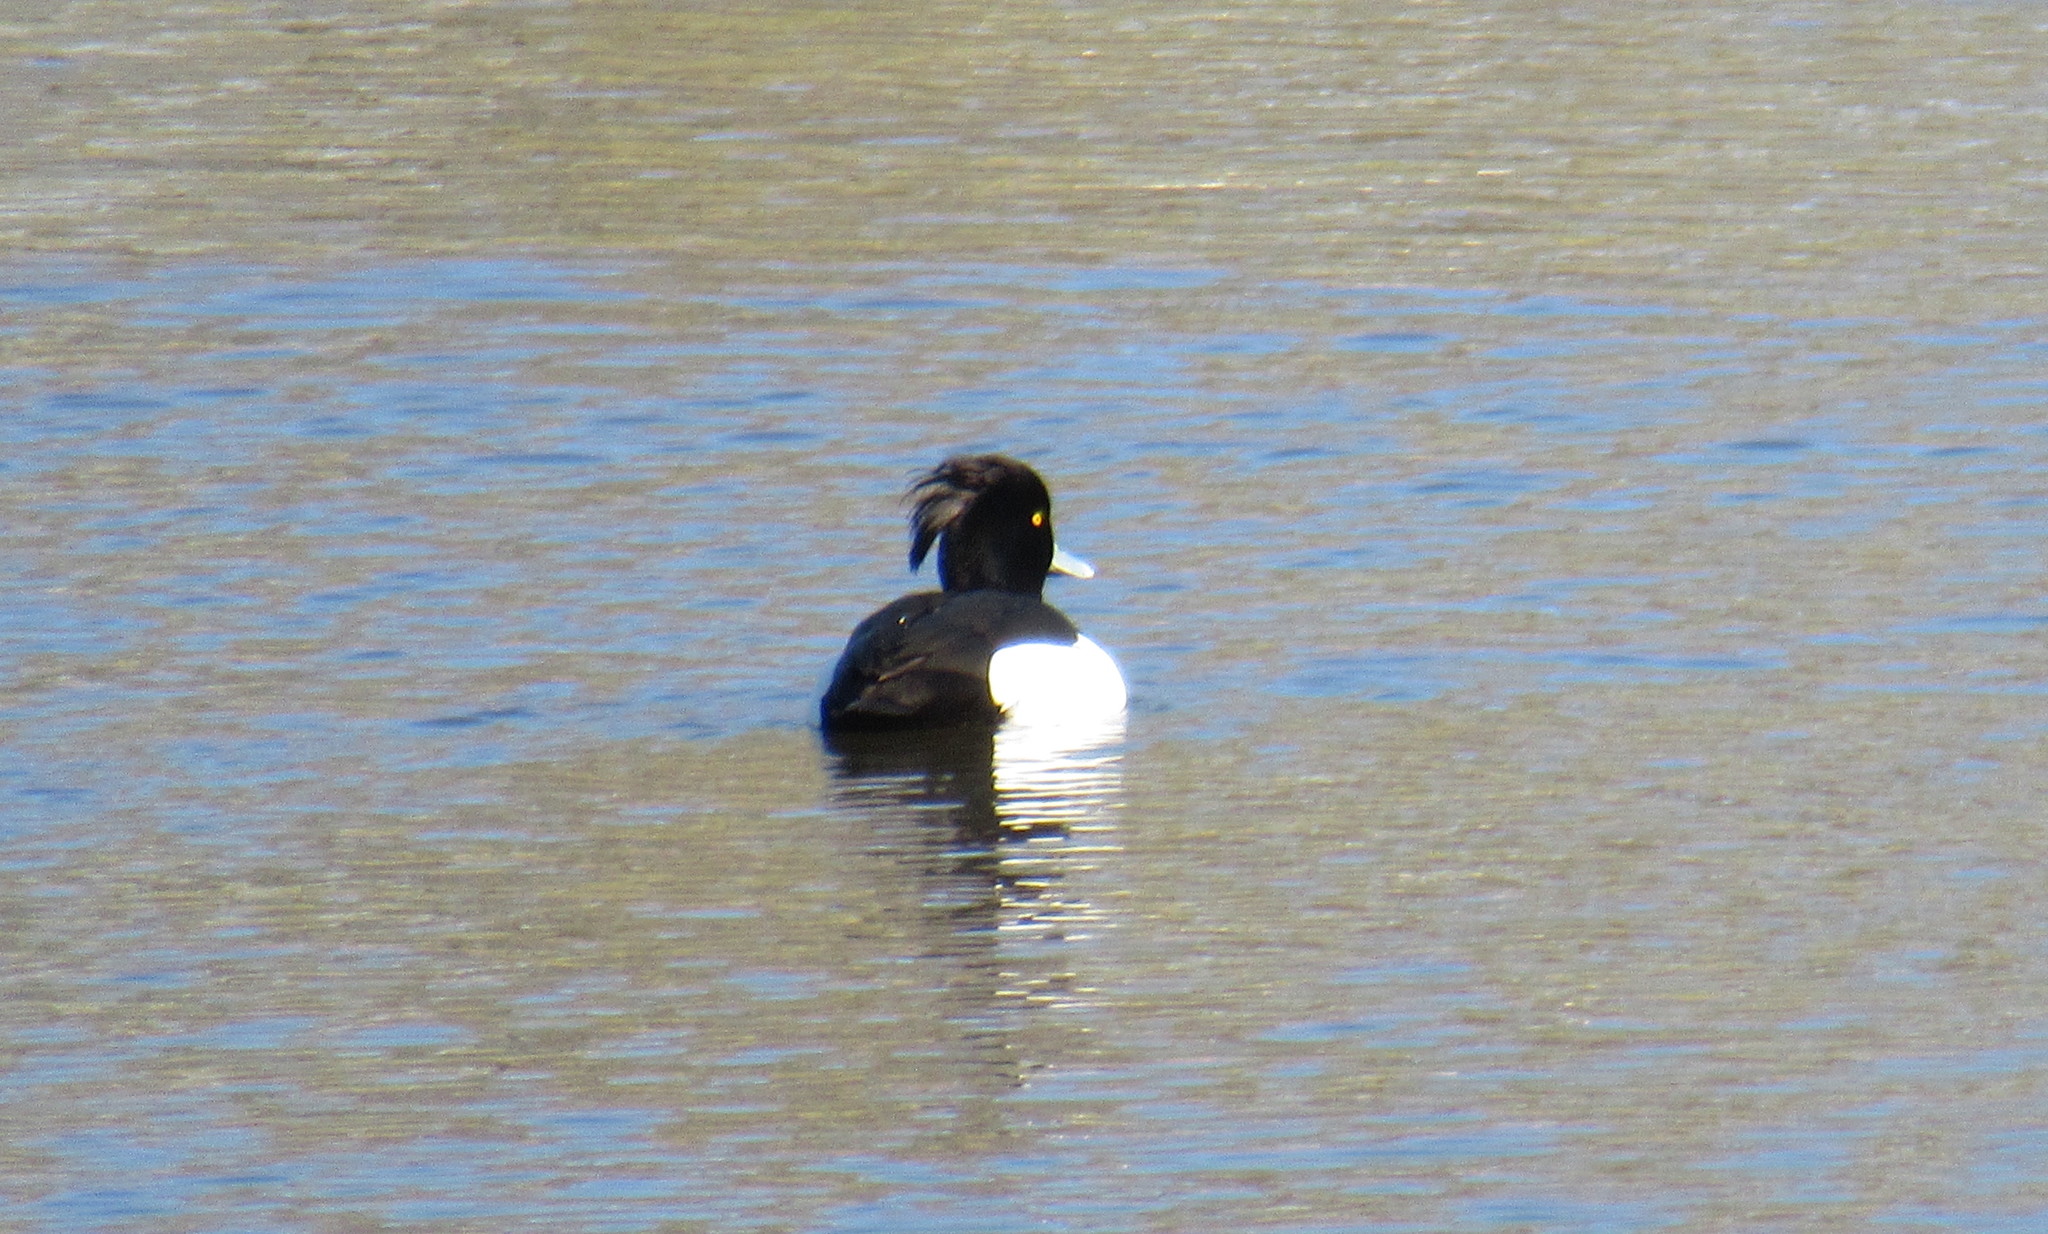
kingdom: Animalia
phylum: Chordata
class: Aves
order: Anseriformes
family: Anatidae
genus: Aythya
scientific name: Aythya fuligula
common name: Tufted duck
